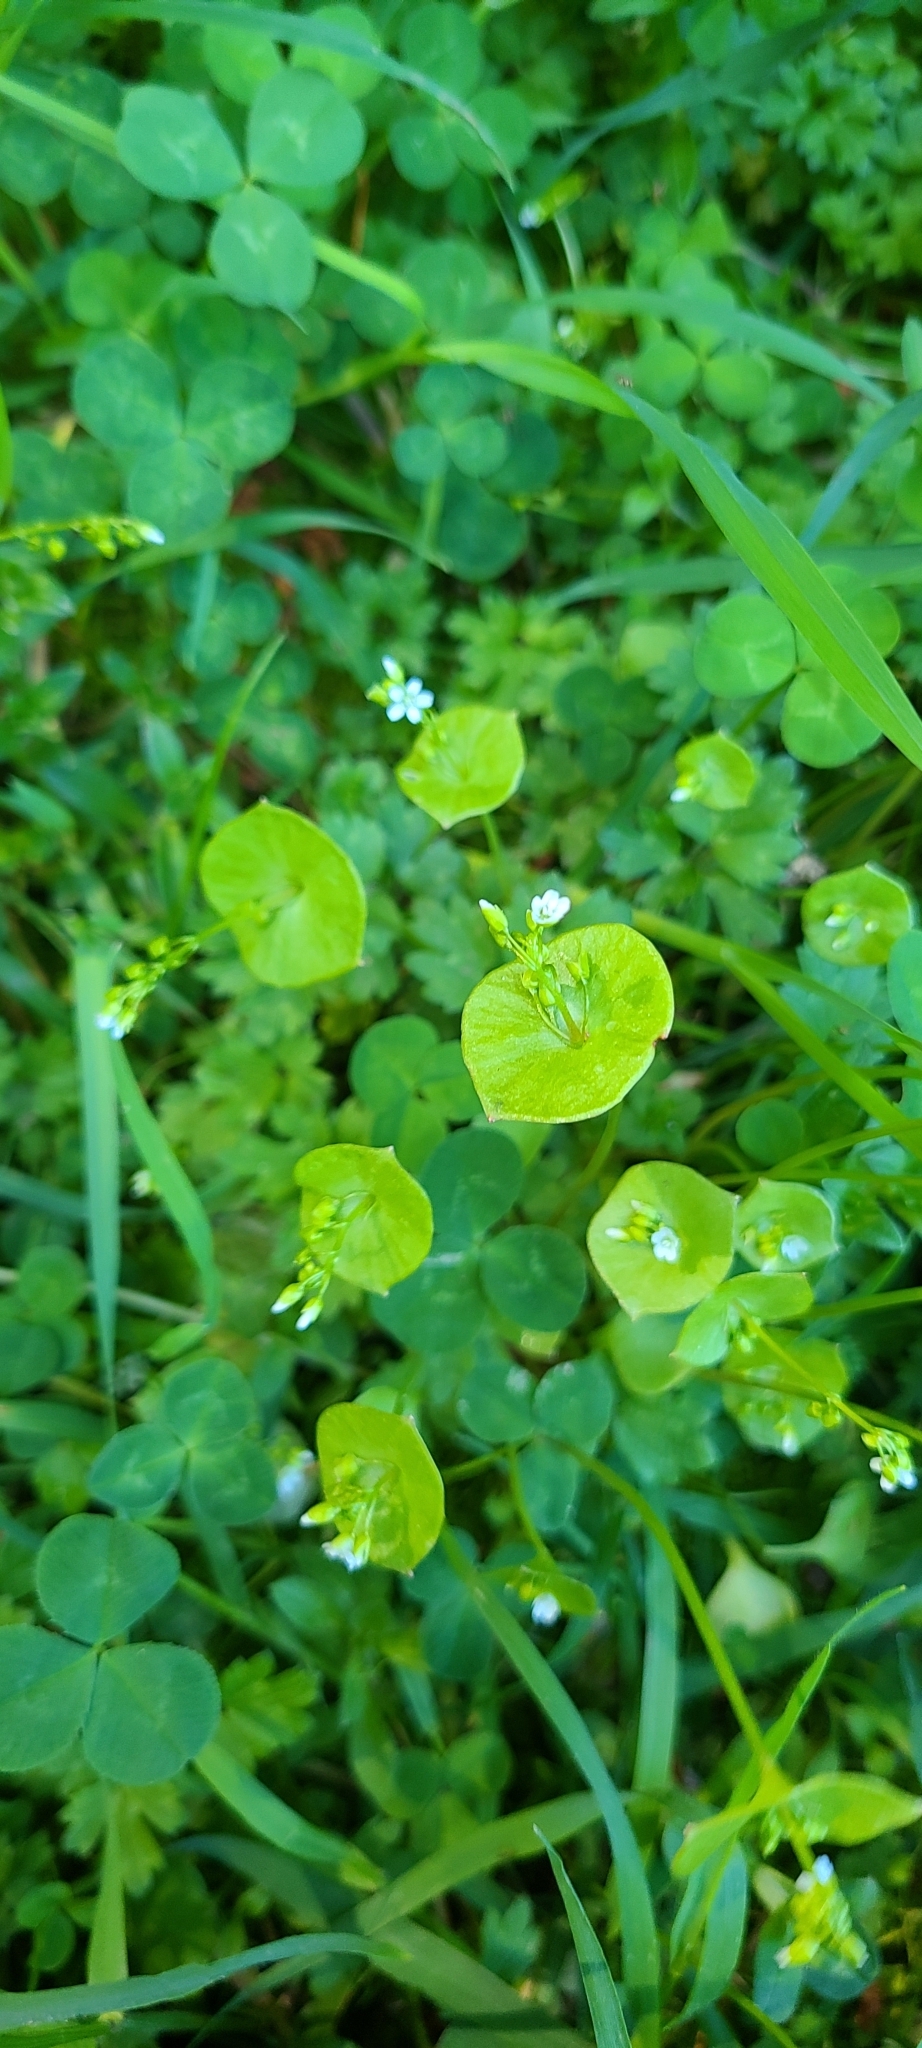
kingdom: Plantae
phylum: Tracheophyta
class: Magnoliopsida
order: Caryophyllales
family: Montiaceae
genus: Claytonia
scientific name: Claytonia perfoliata
